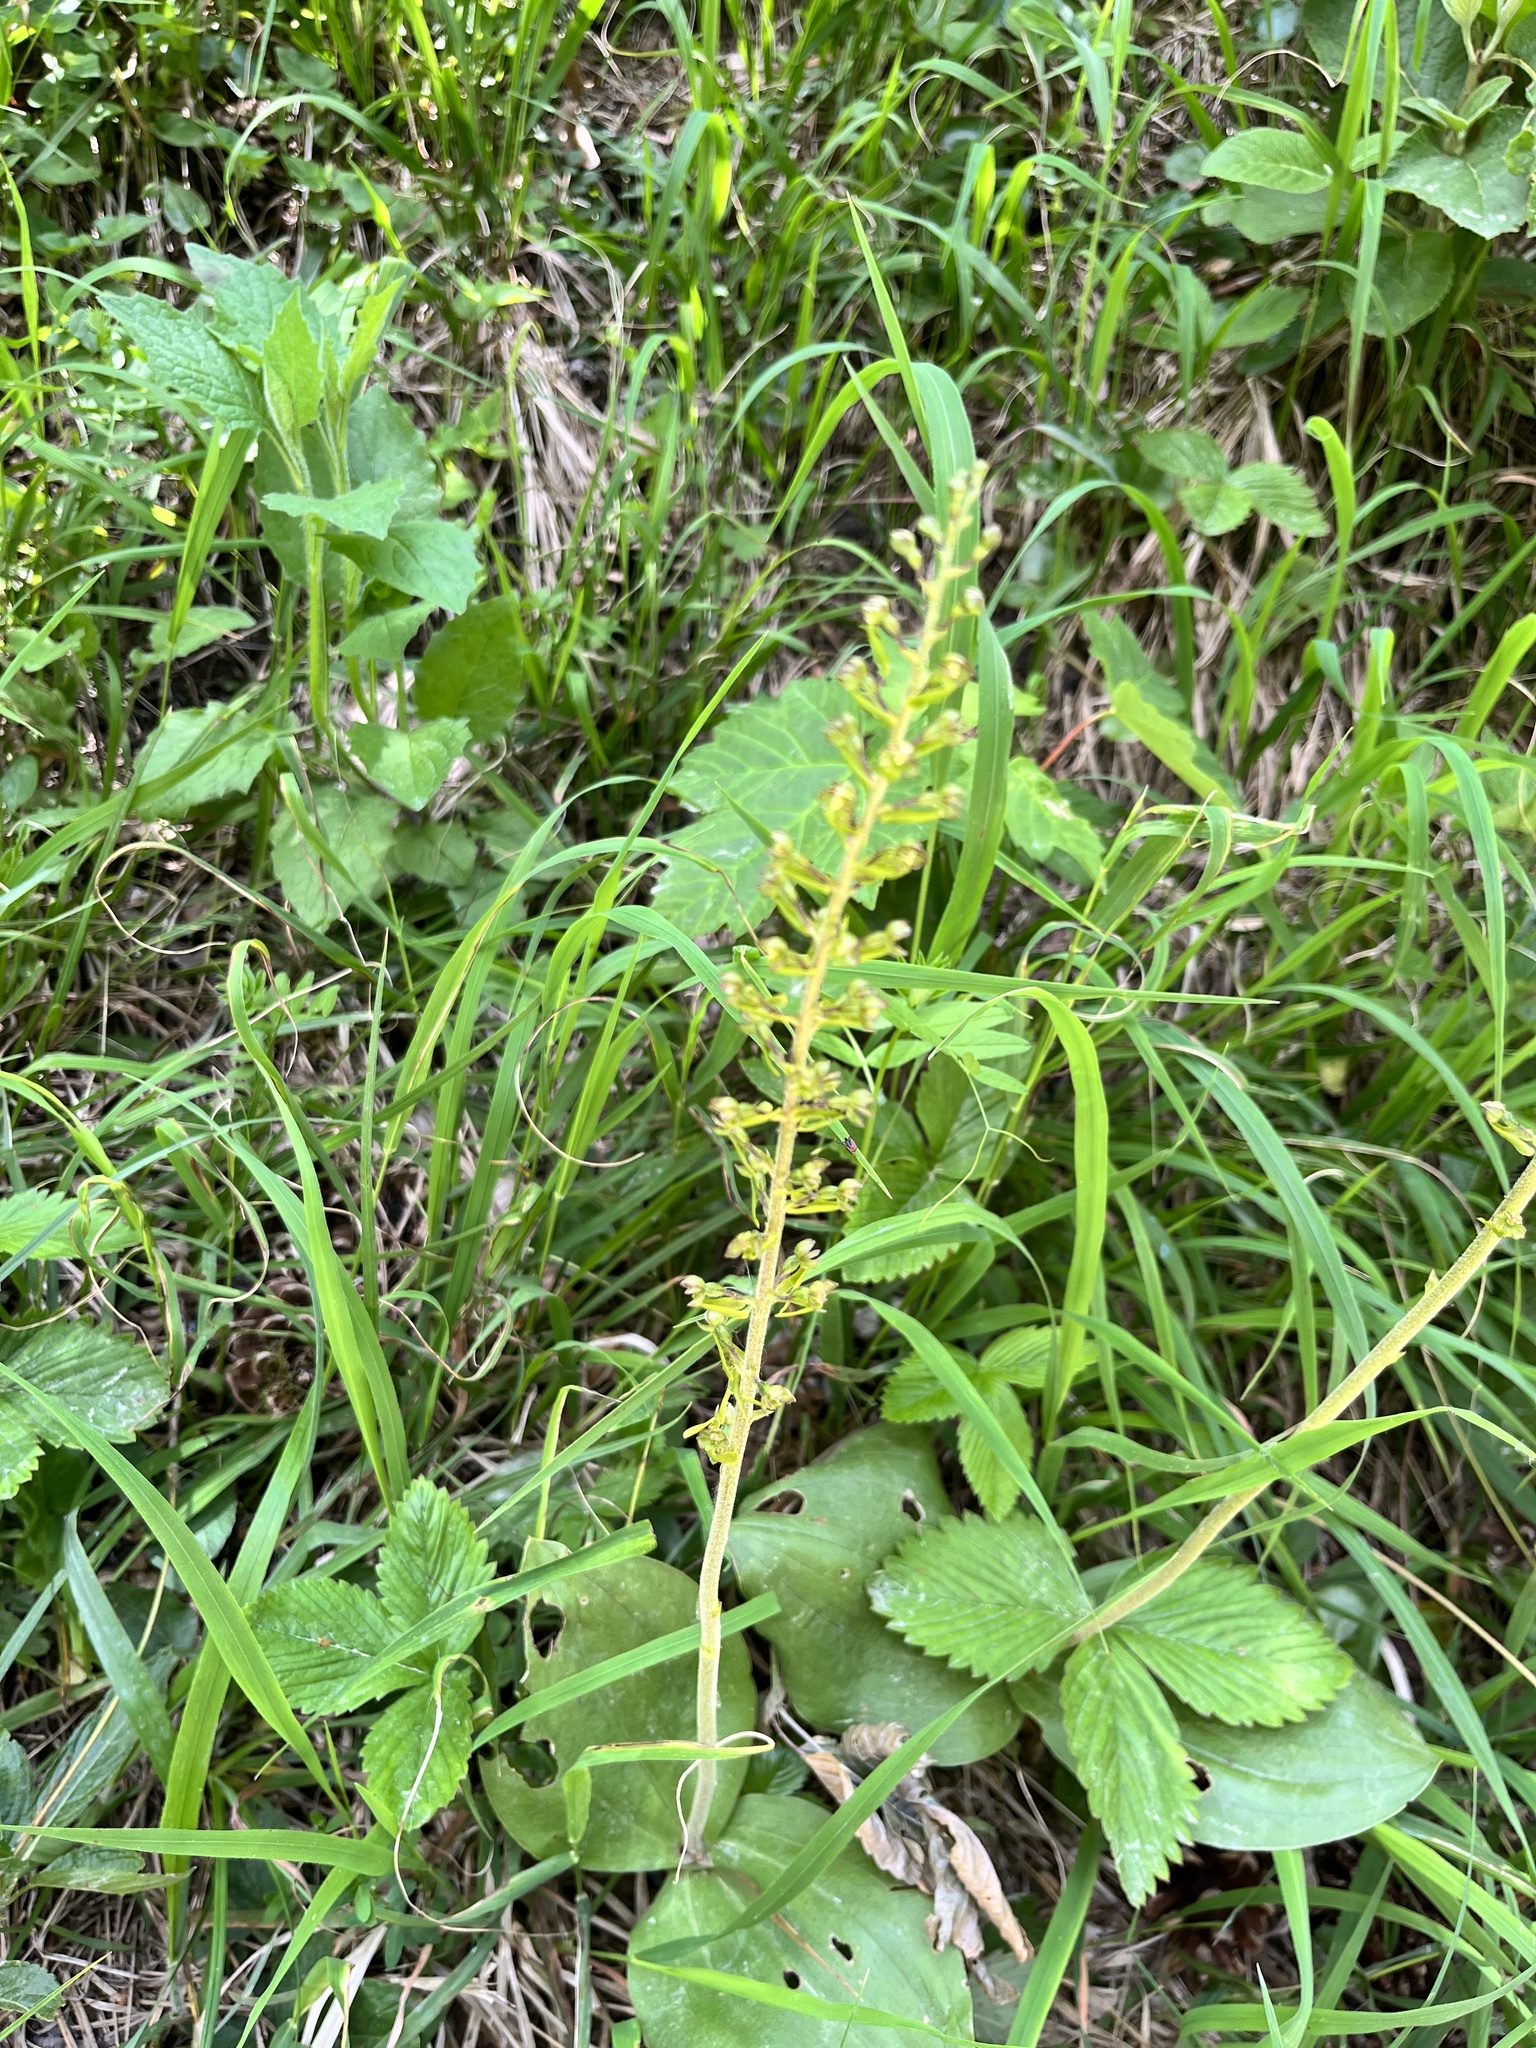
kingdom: Plantae
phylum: Tracheophyta
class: Liliopsida
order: Asparagales
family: Orchidaceae
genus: Neottia
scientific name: Neottia ovata
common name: Common twayblade
